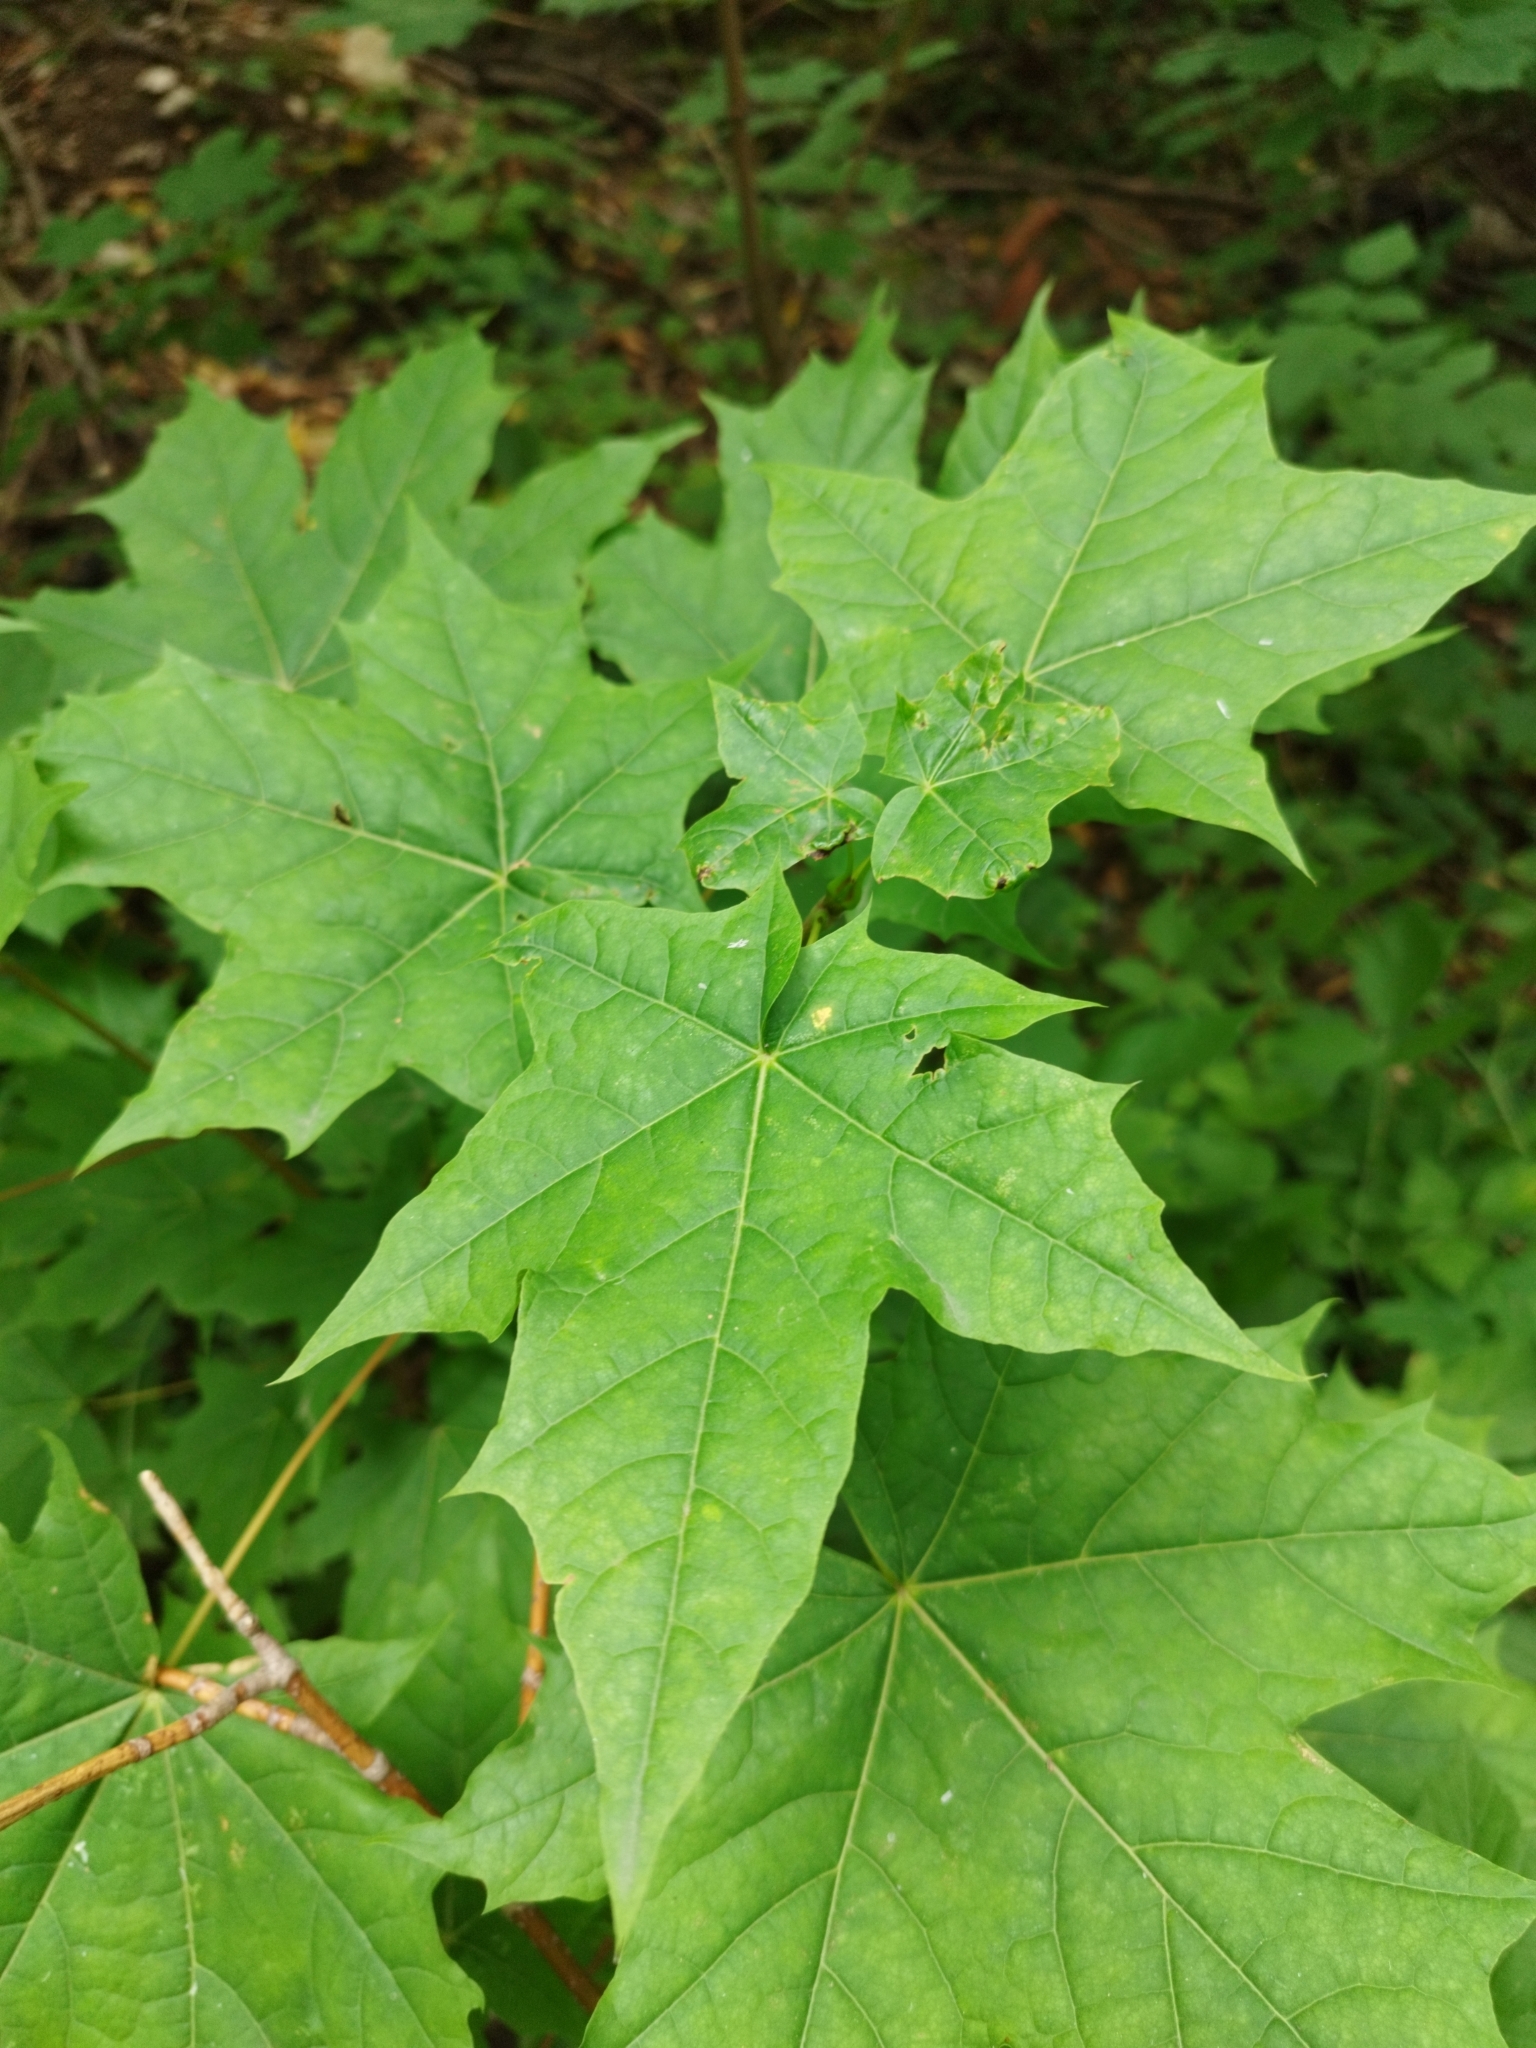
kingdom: Plantae
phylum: Tracheophyta
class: Magnoliopsida
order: Sapindales
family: Sapindaceae
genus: Acer
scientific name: Acer platanoides
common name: Norway maple
